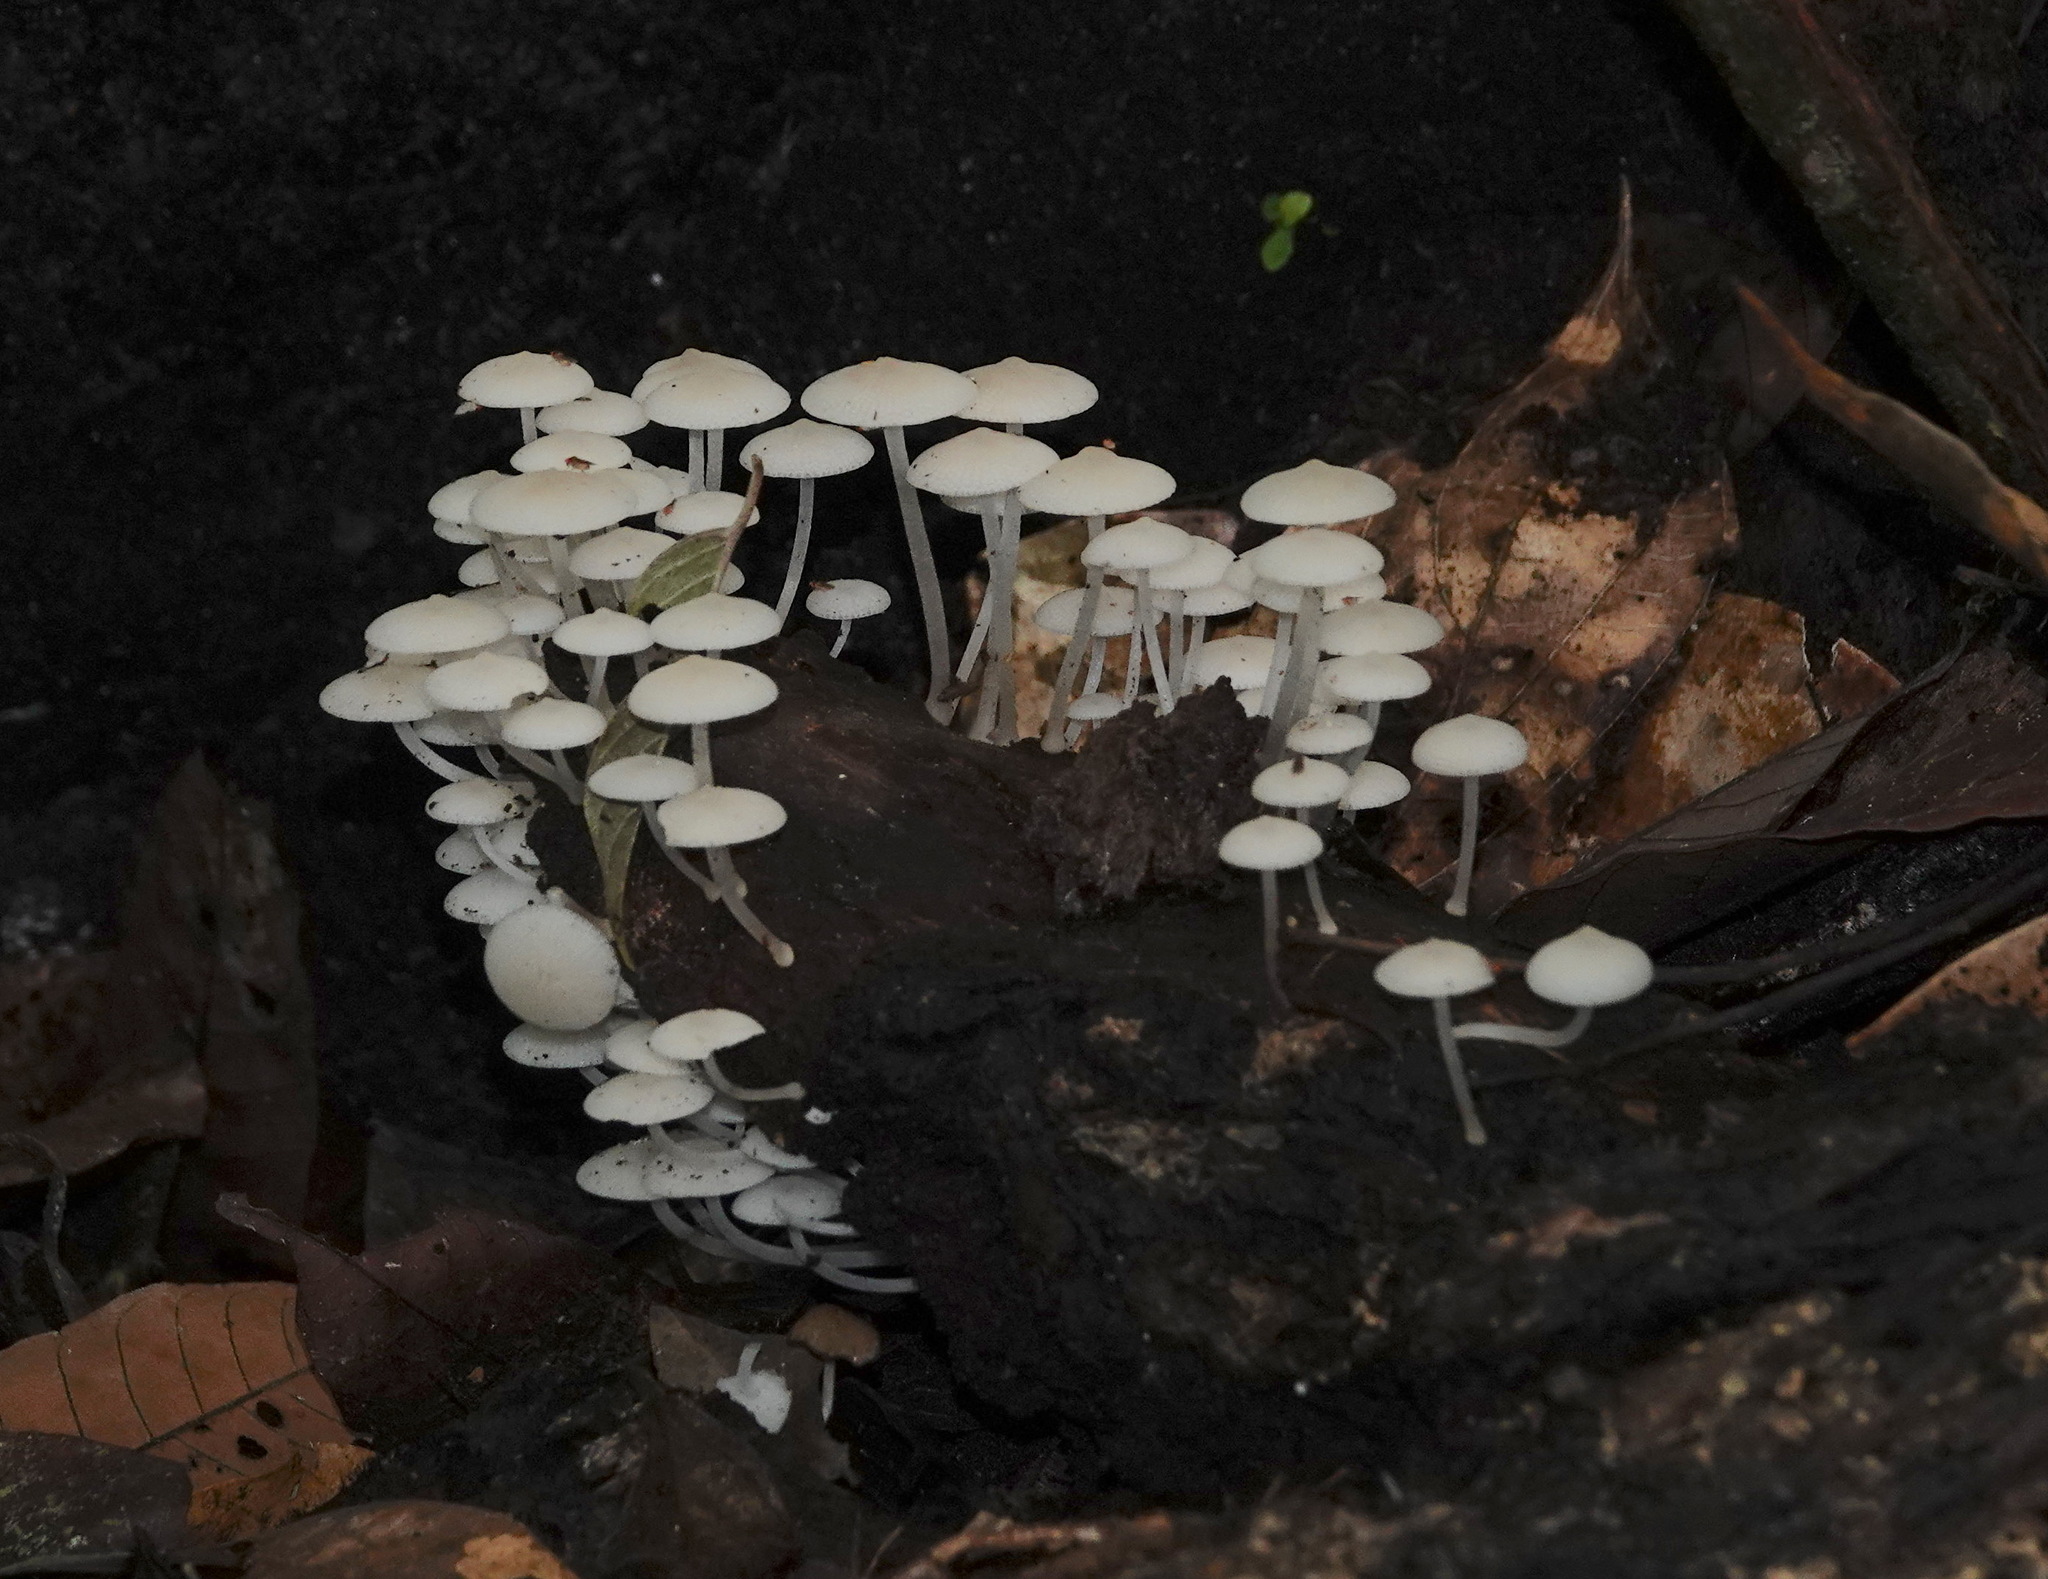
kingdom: Fungi
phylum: Basidiomycota
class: Agaricomycetes
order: Agaricales
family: Mycenaceae
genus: Filoboletus
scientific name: Filoboletus manipularis
